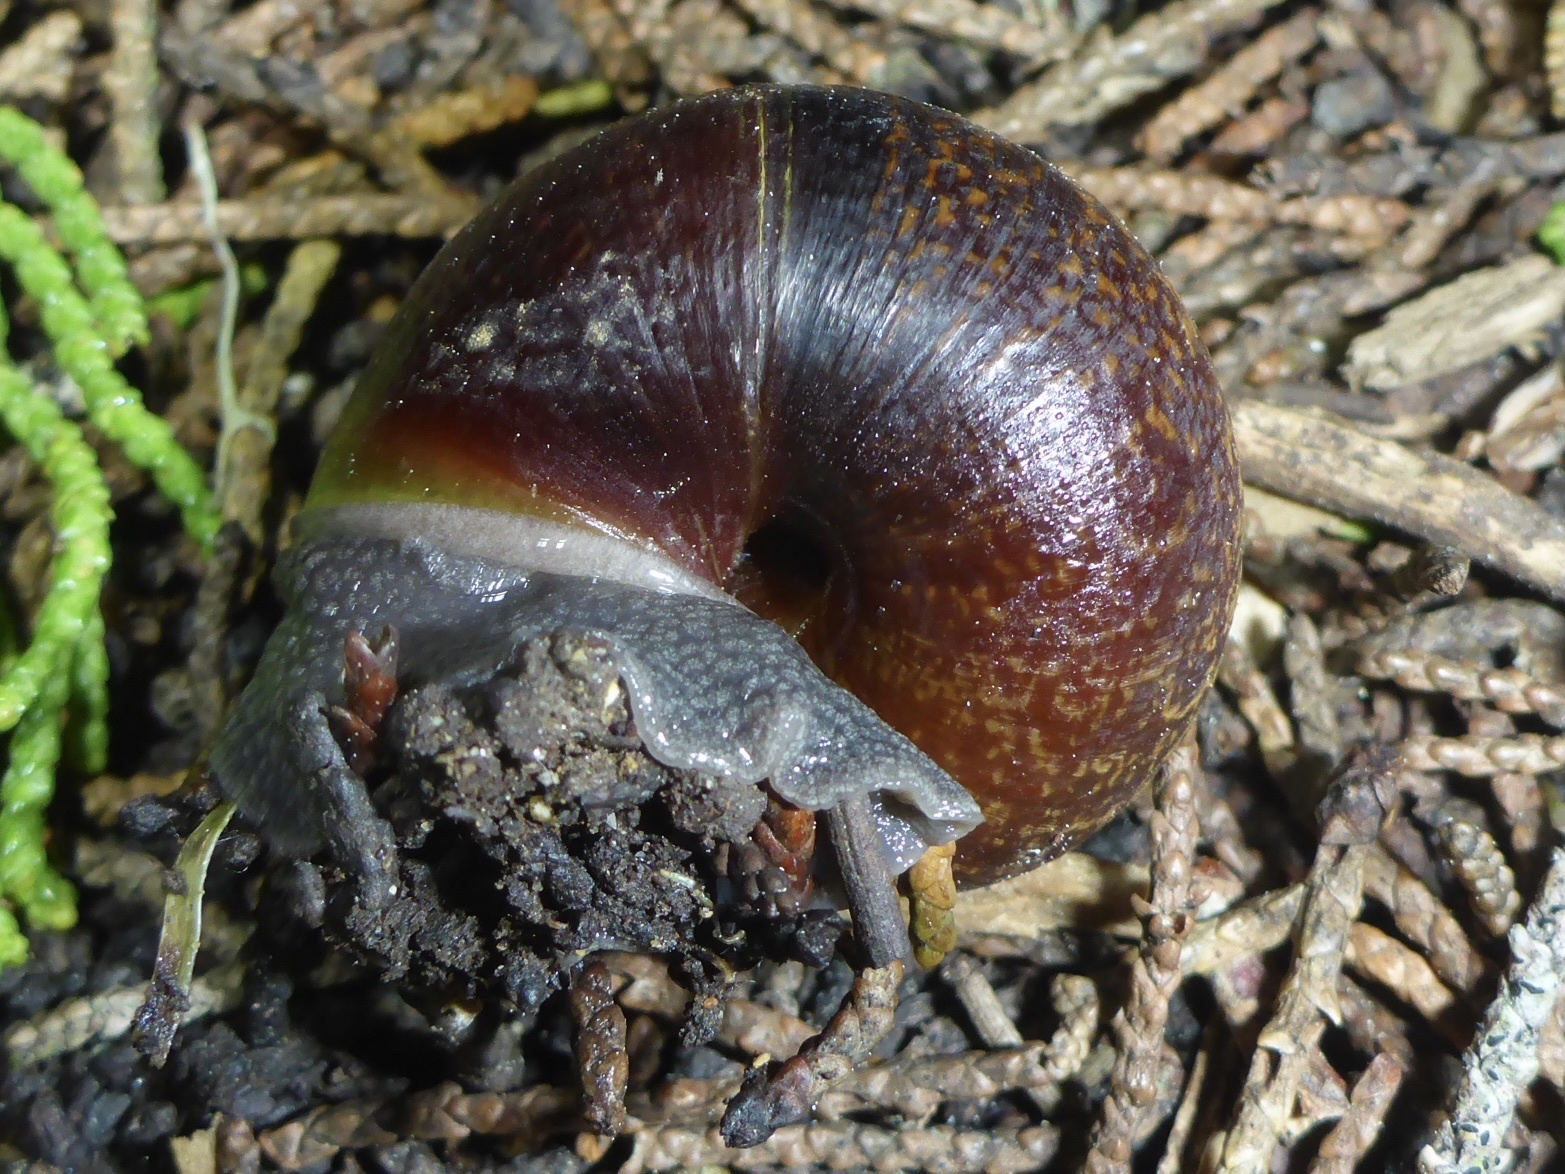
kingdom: Animalia
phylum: Mollusca
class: Gastropoda
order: Stylommatophora
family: Xanthonychidae
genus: Helminthoglypta
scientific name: Helminthoglypta arrosa
